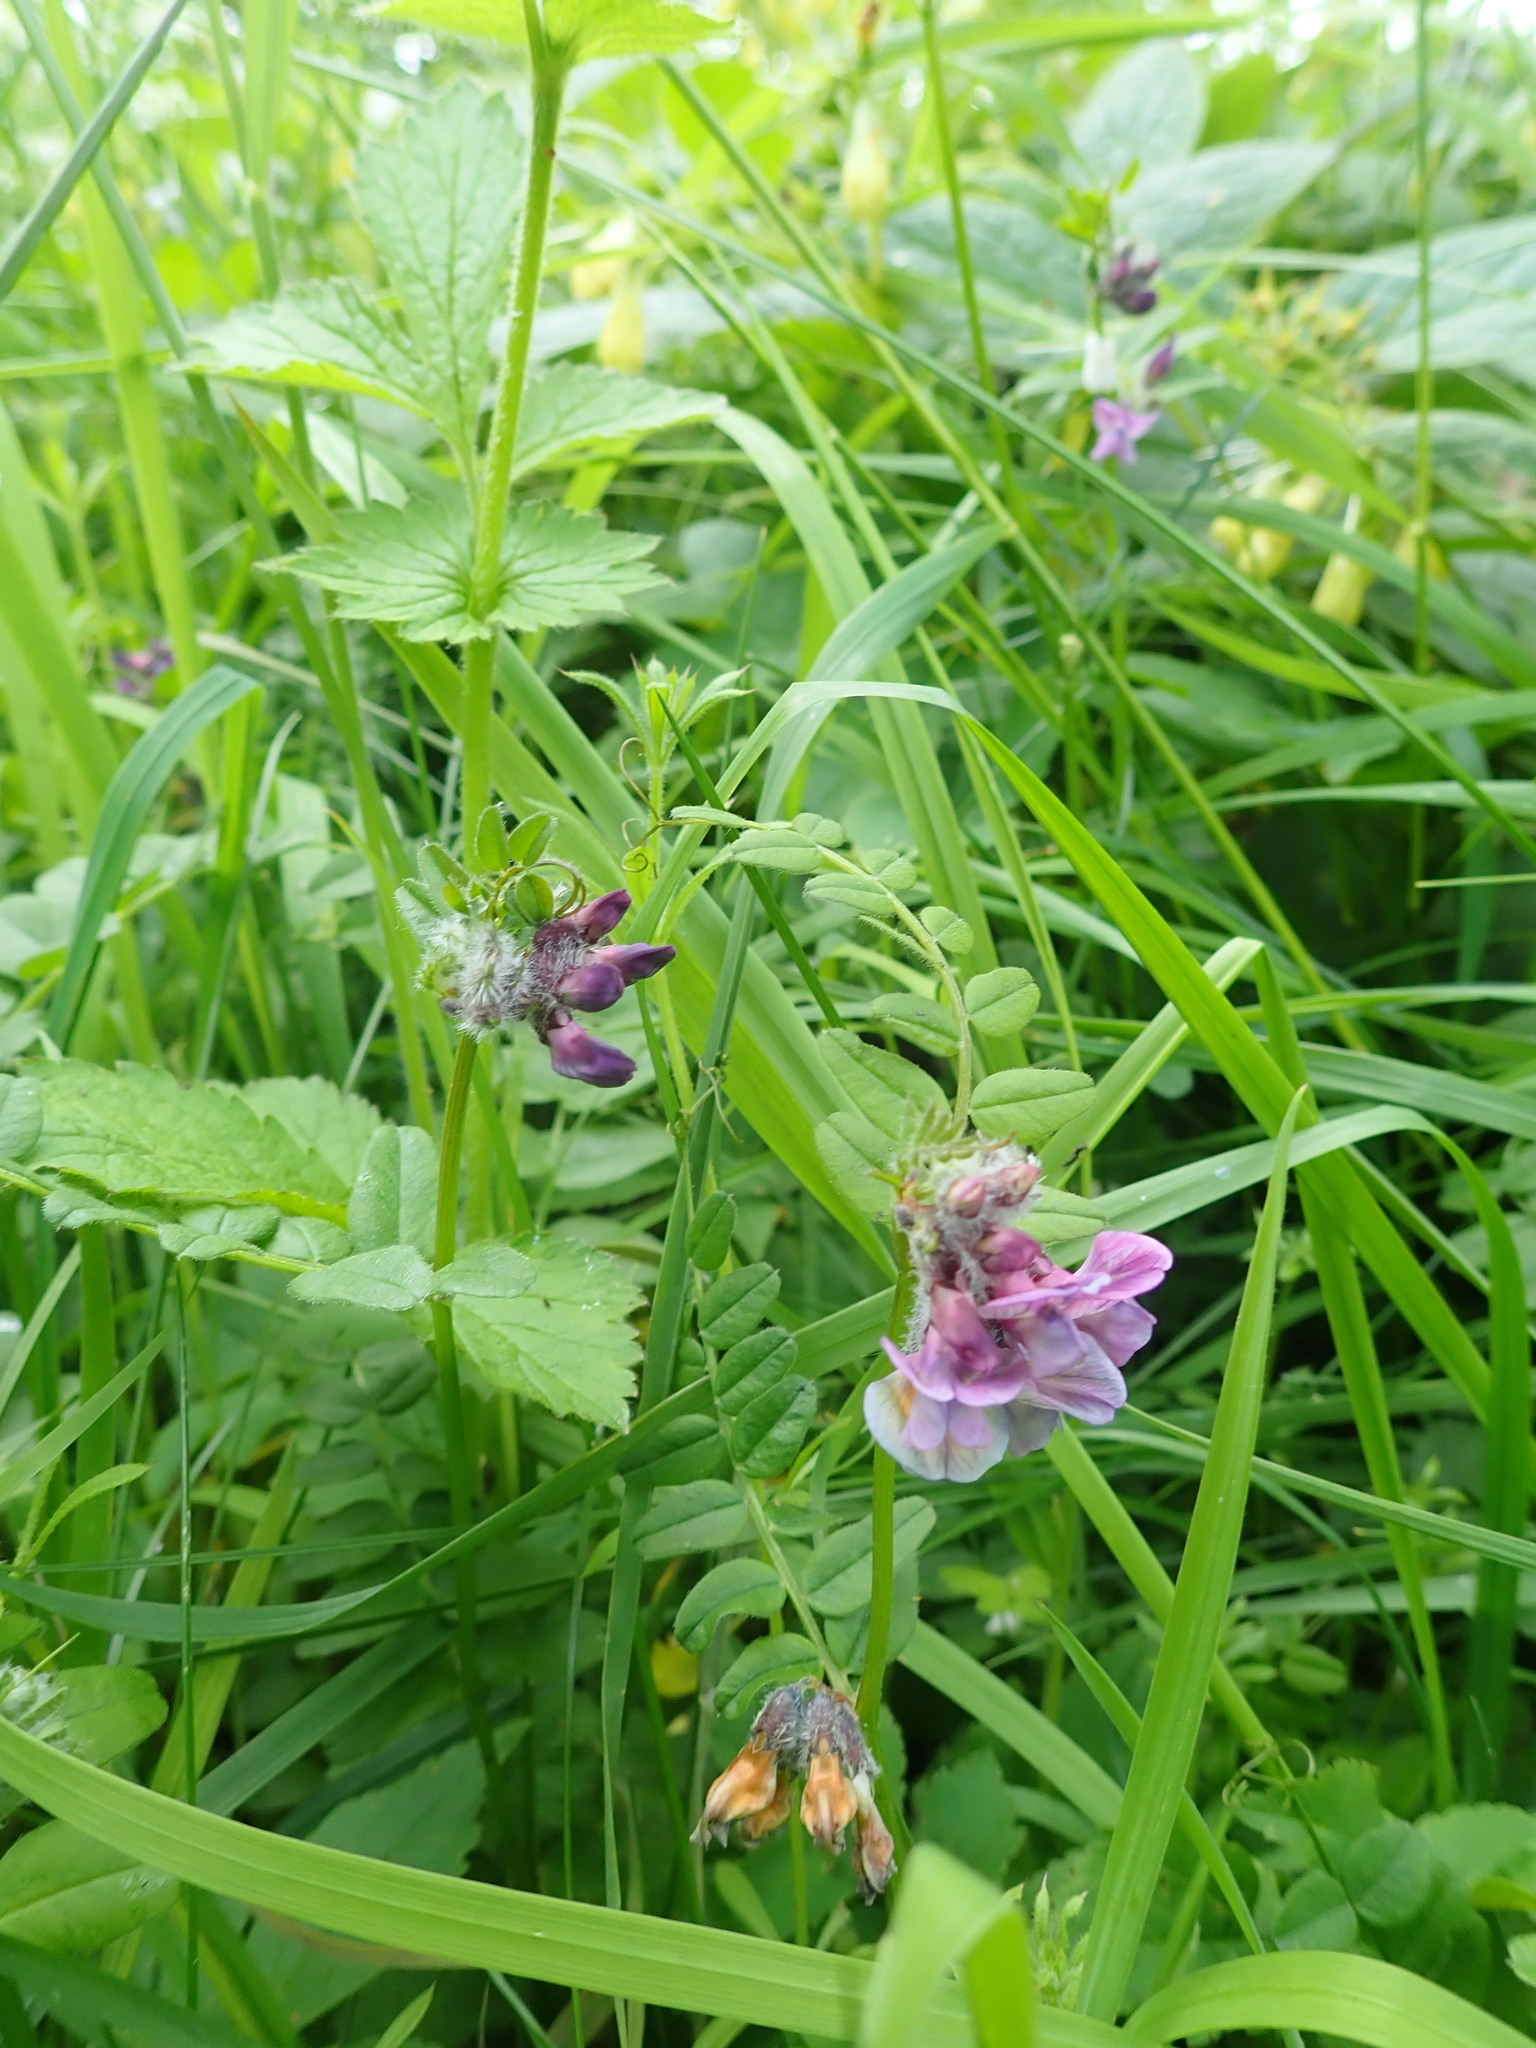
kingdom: Plantae
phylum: Tracheophyta
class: Magnoliopsida
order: Fabales
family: Fabaceae
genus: Vicia
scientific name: Vicia sepium
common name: Bush vetch
